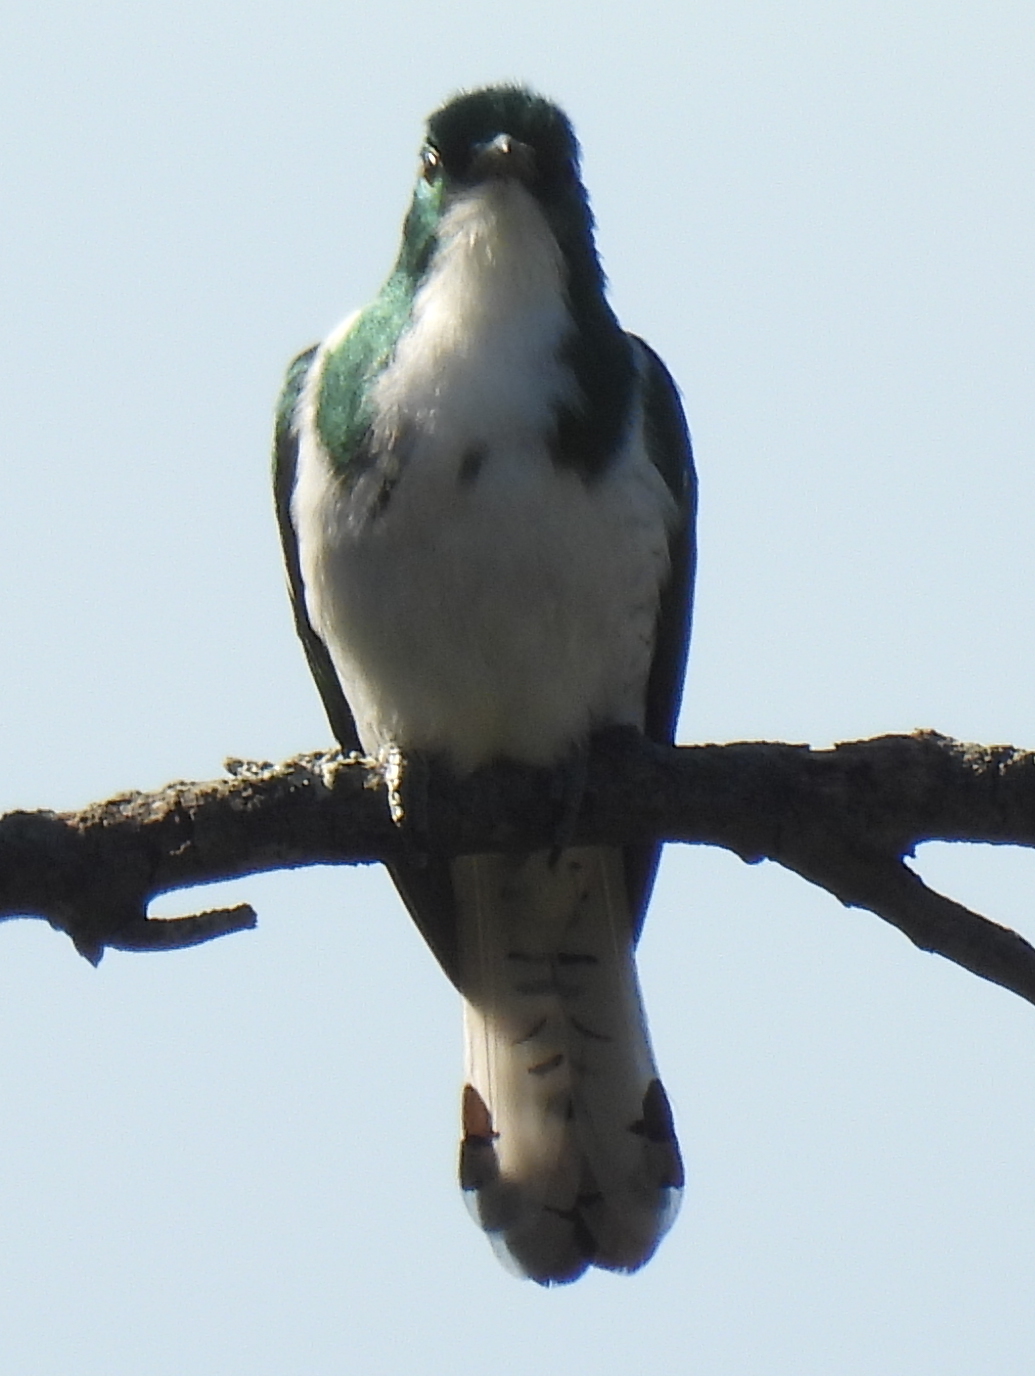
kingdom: Animalia
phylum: Chordata
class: Aves
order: Cuculiformes
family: Cuculidae
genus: Chrysococcyx
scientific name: Chrysococcyx klaas
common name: Klaas's cuckoo
